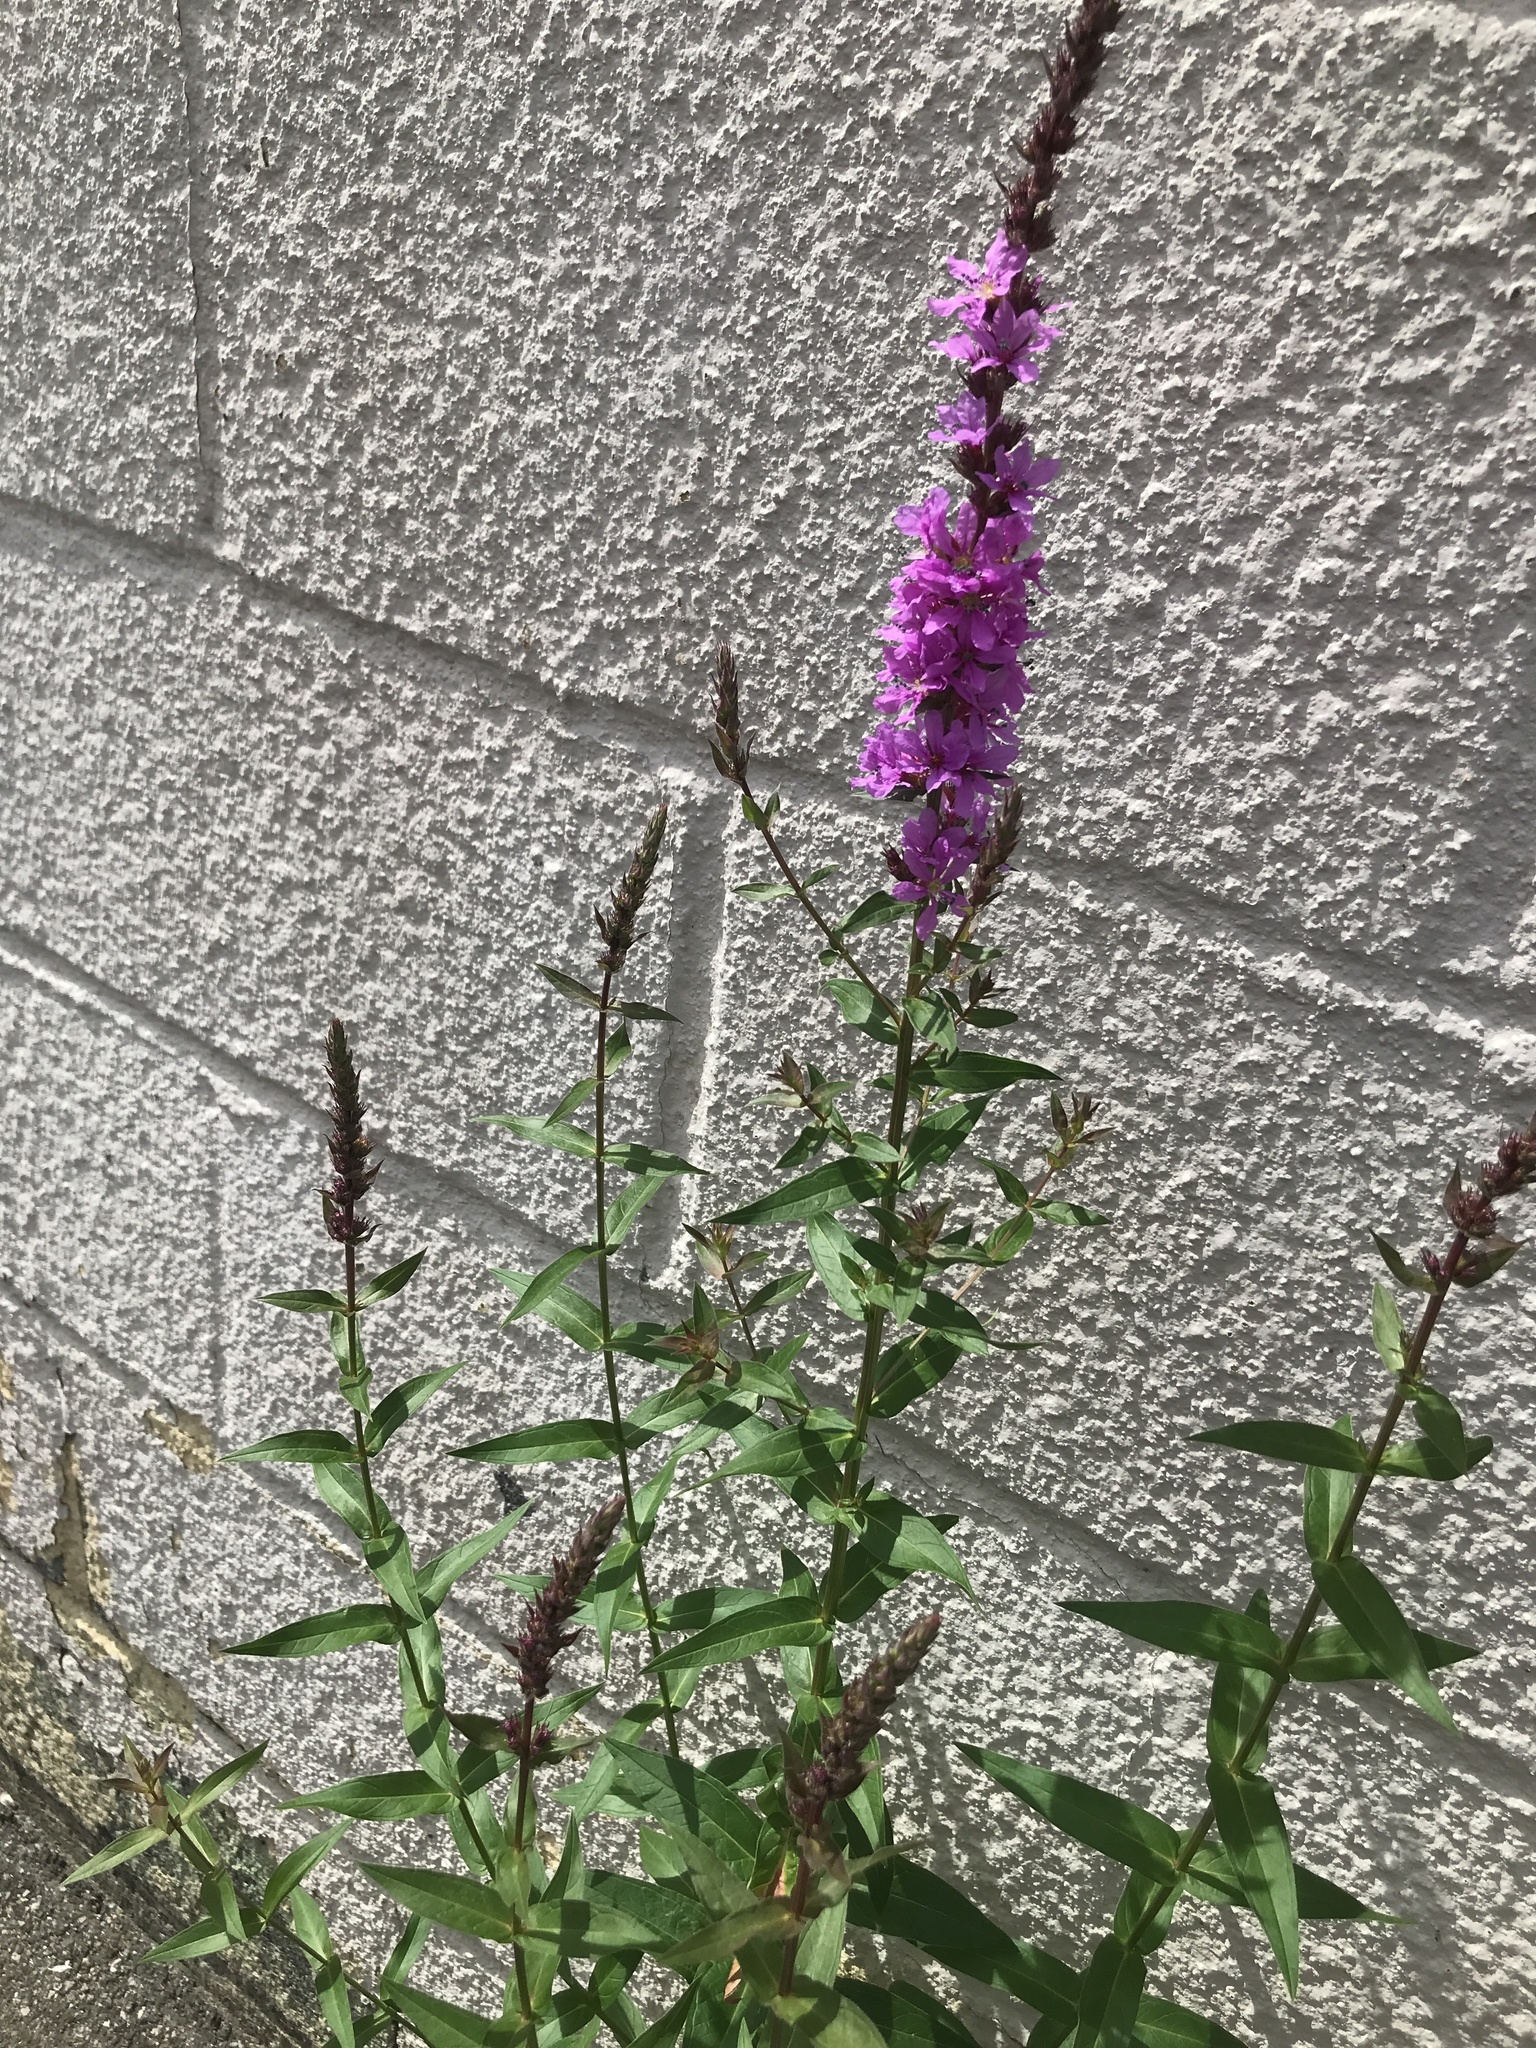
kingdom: Plantae
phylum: Tracheophyta
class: Magnoliopsida
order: Myrtales
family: Lythraceae
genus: Lythrum
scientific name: Lythrum salicaria
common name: Purple loosestrife
